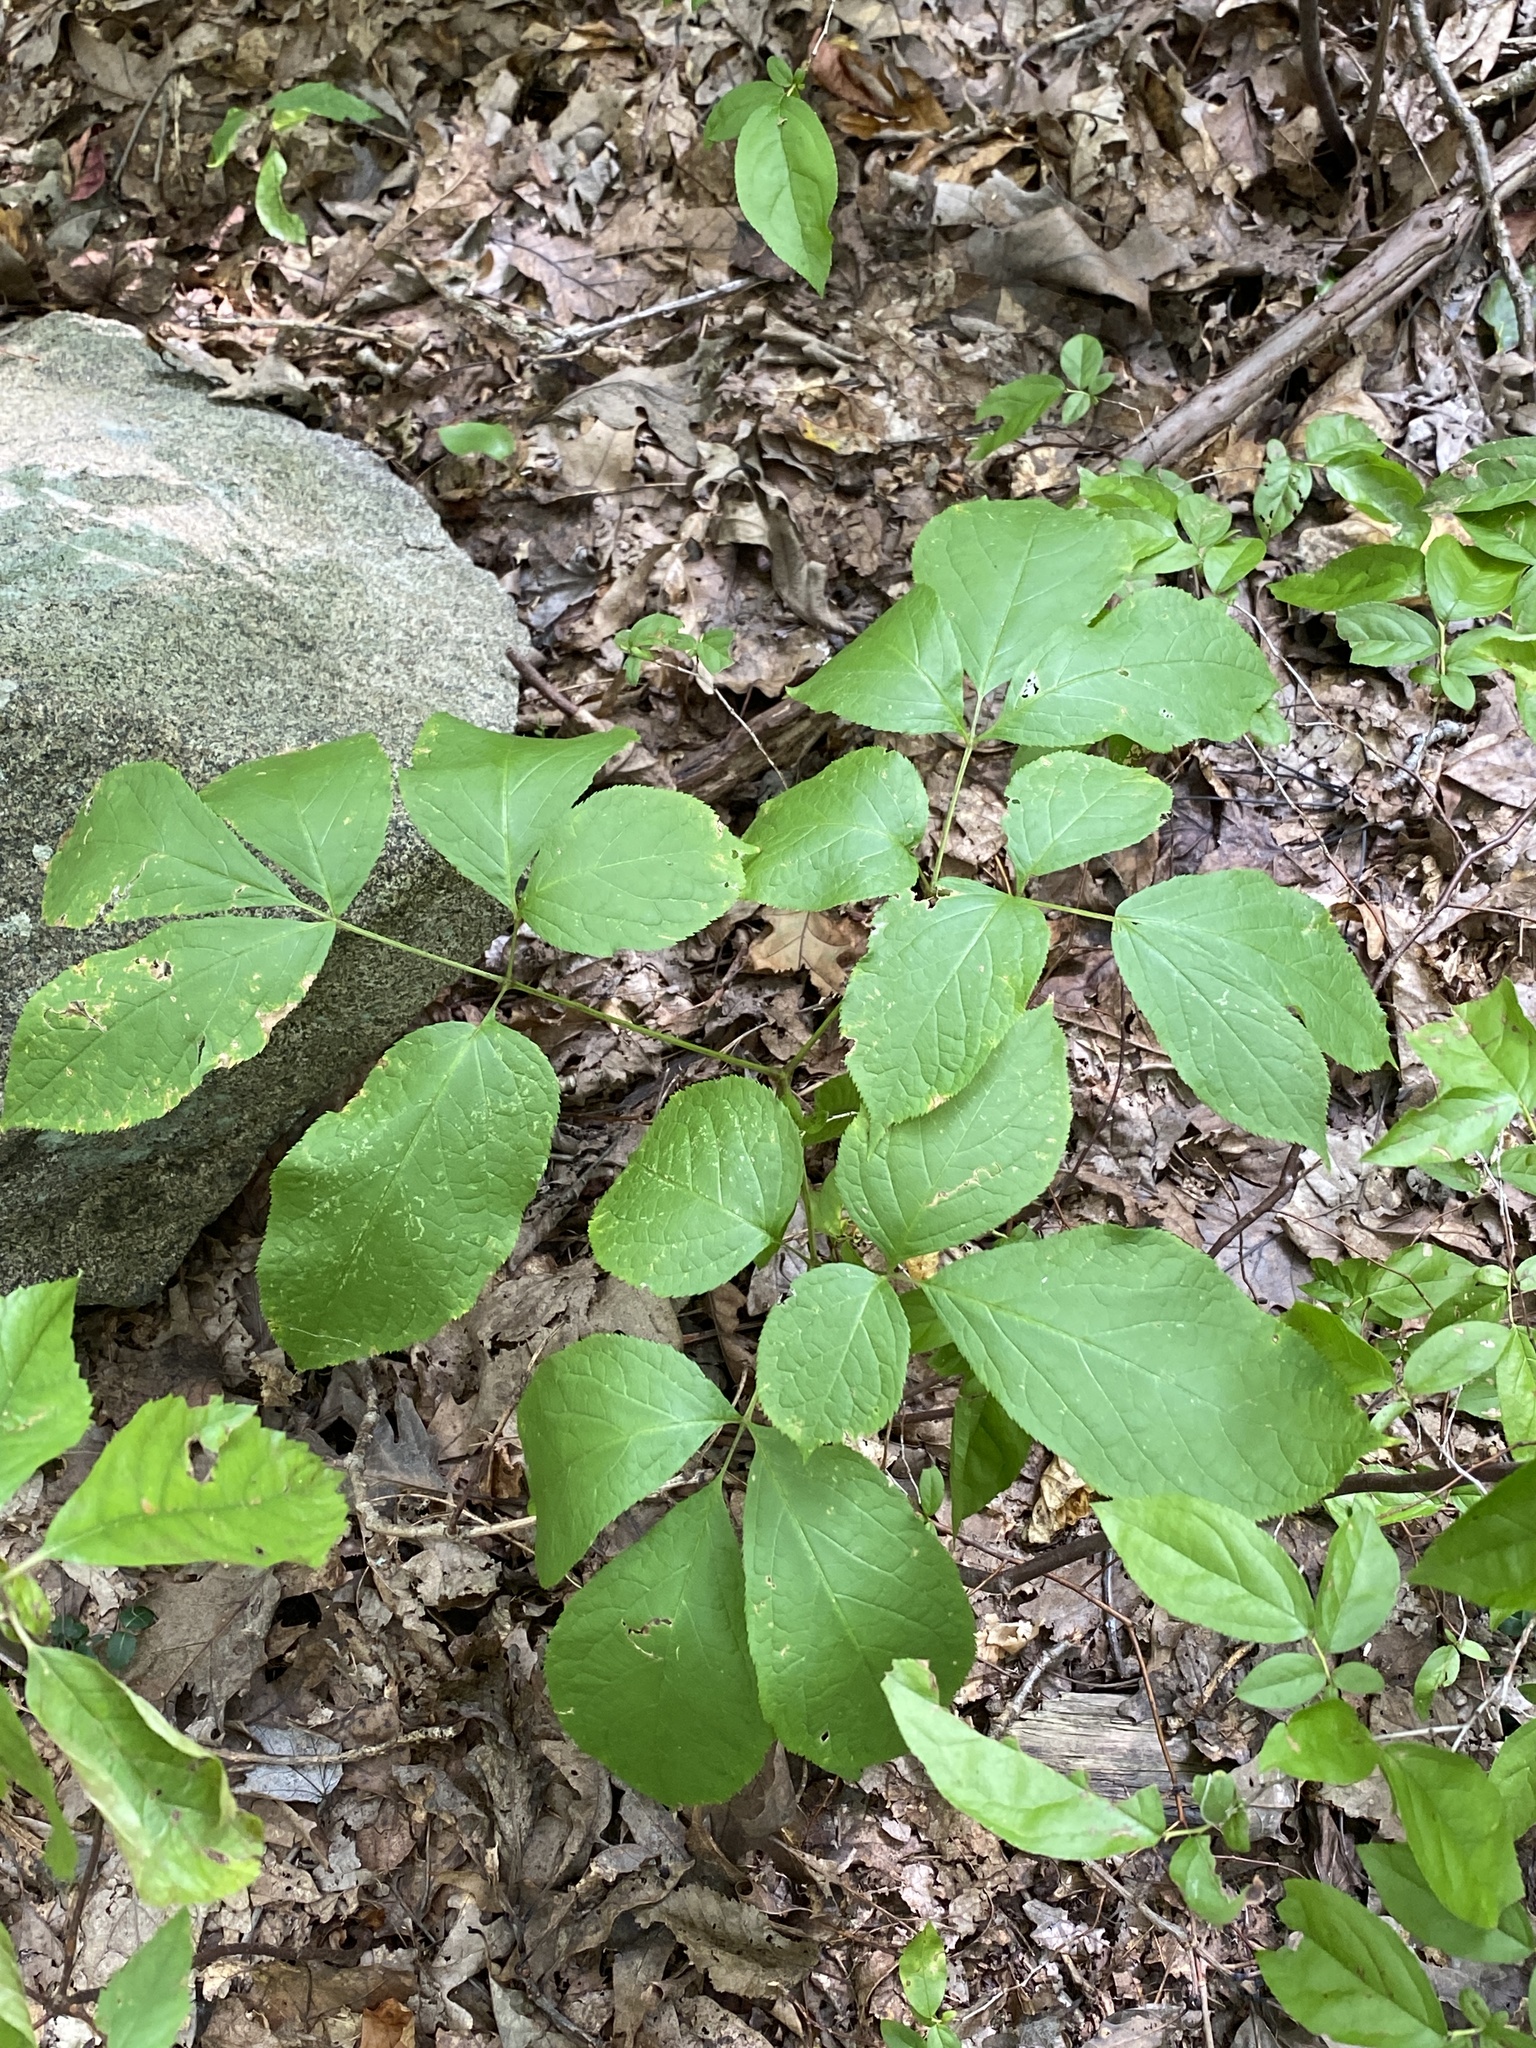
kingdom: Plantae
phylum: Tracheophyta
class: Magnoliopsida
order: Apiales
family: Araliaceae
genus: Aralia
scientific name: Aralia nudicaulis
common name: Wild sarsaparilla
